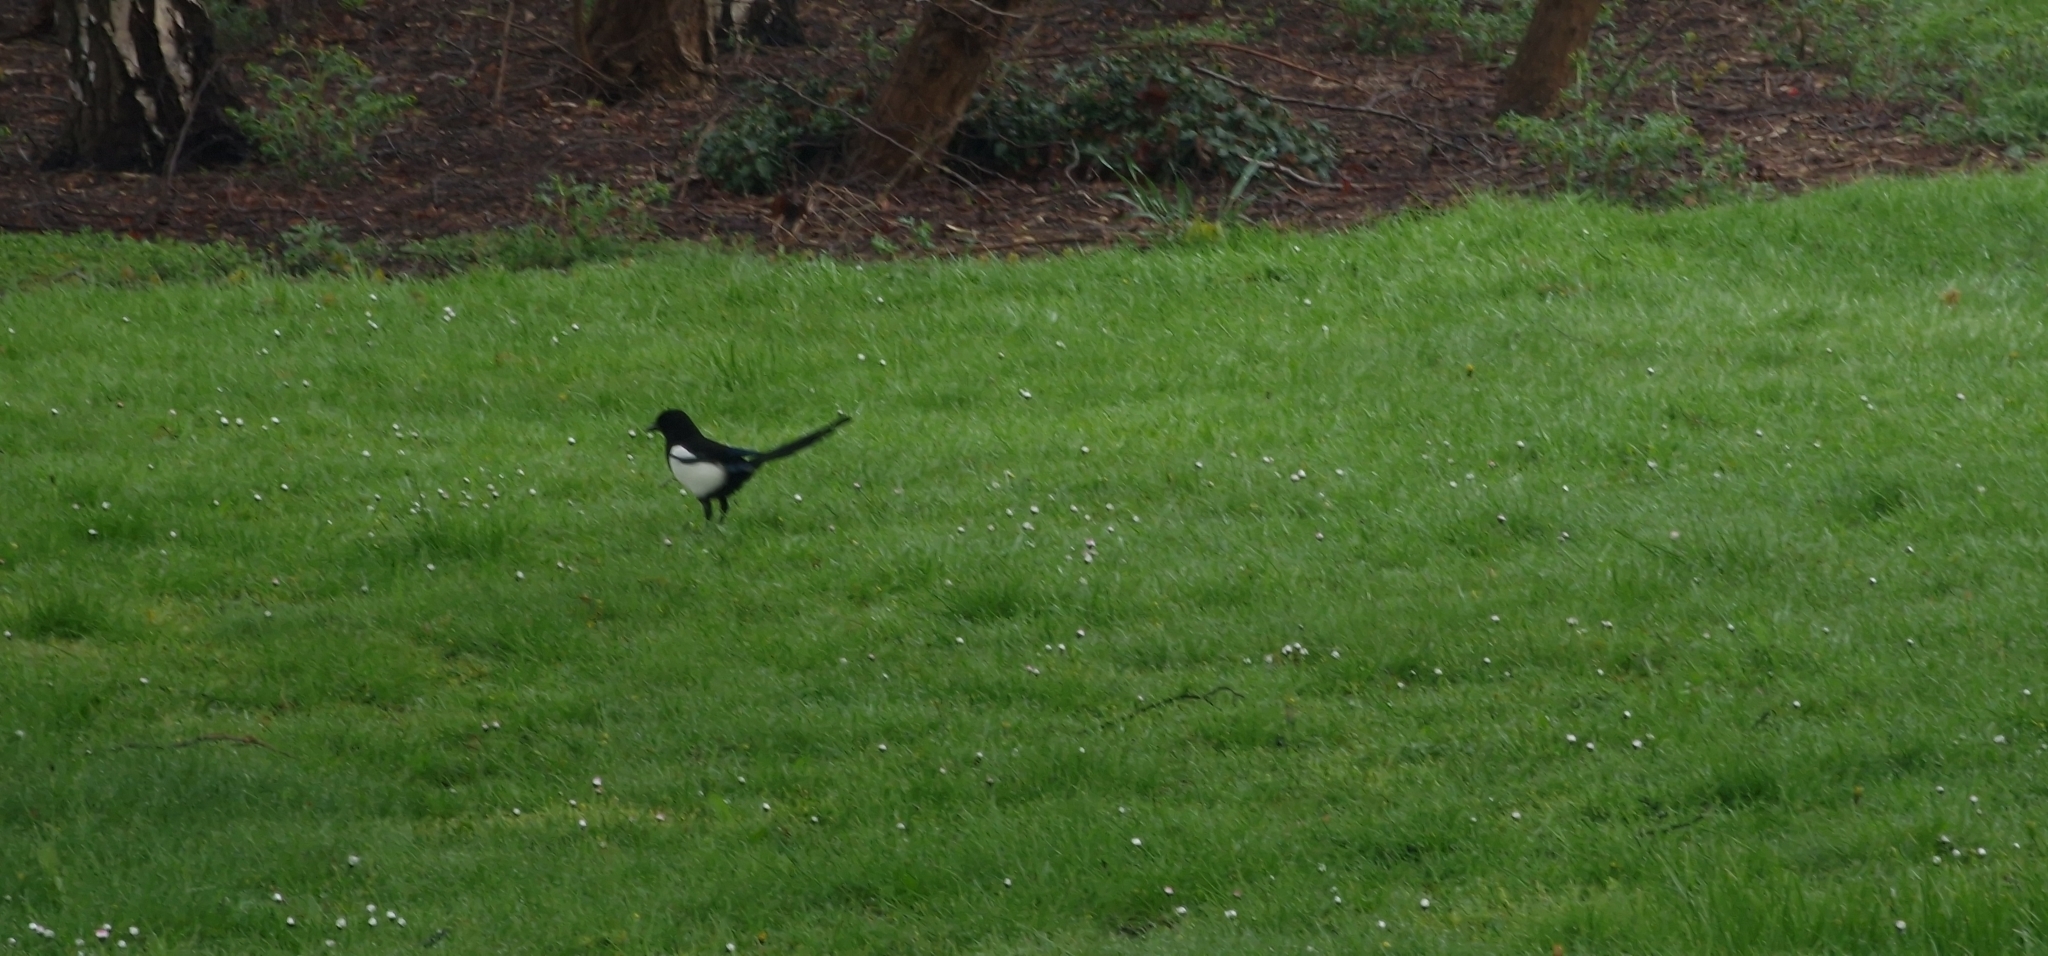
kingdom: Animalia
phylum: Chordata
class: Aves
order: Passeriformes
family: Corvidae
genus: Pica
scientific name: Pica pica
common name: Eurasian magpie
